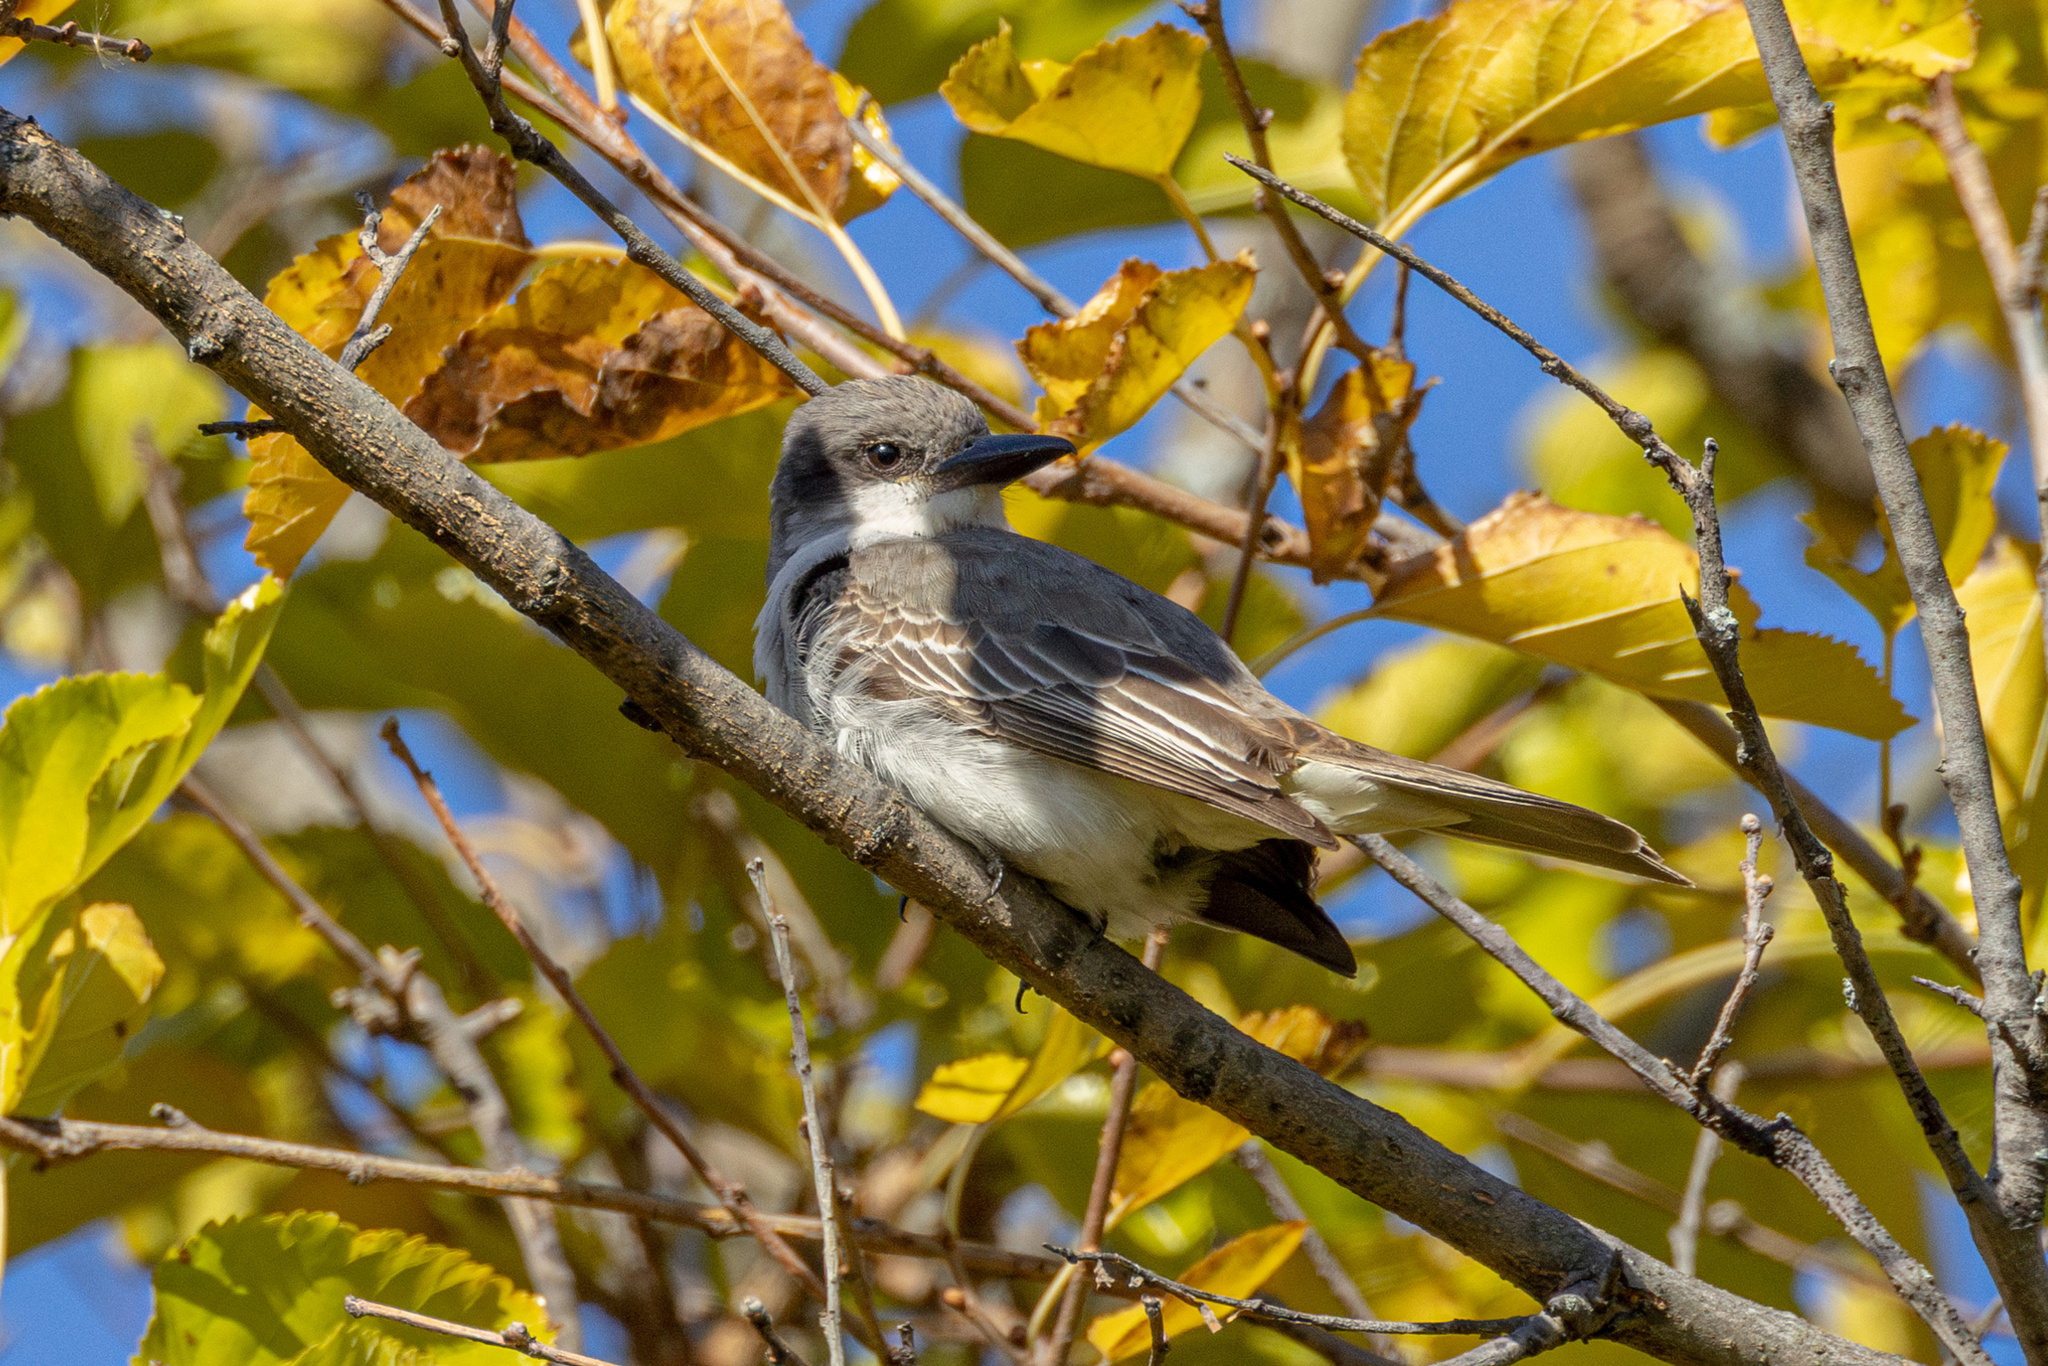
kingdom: Animalia
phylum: Chordata
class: Aves
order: Passeriformes
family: Tyrannidae
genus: Tyrannus
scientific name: Tyrannus dominicensis
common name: Gray kingbird
